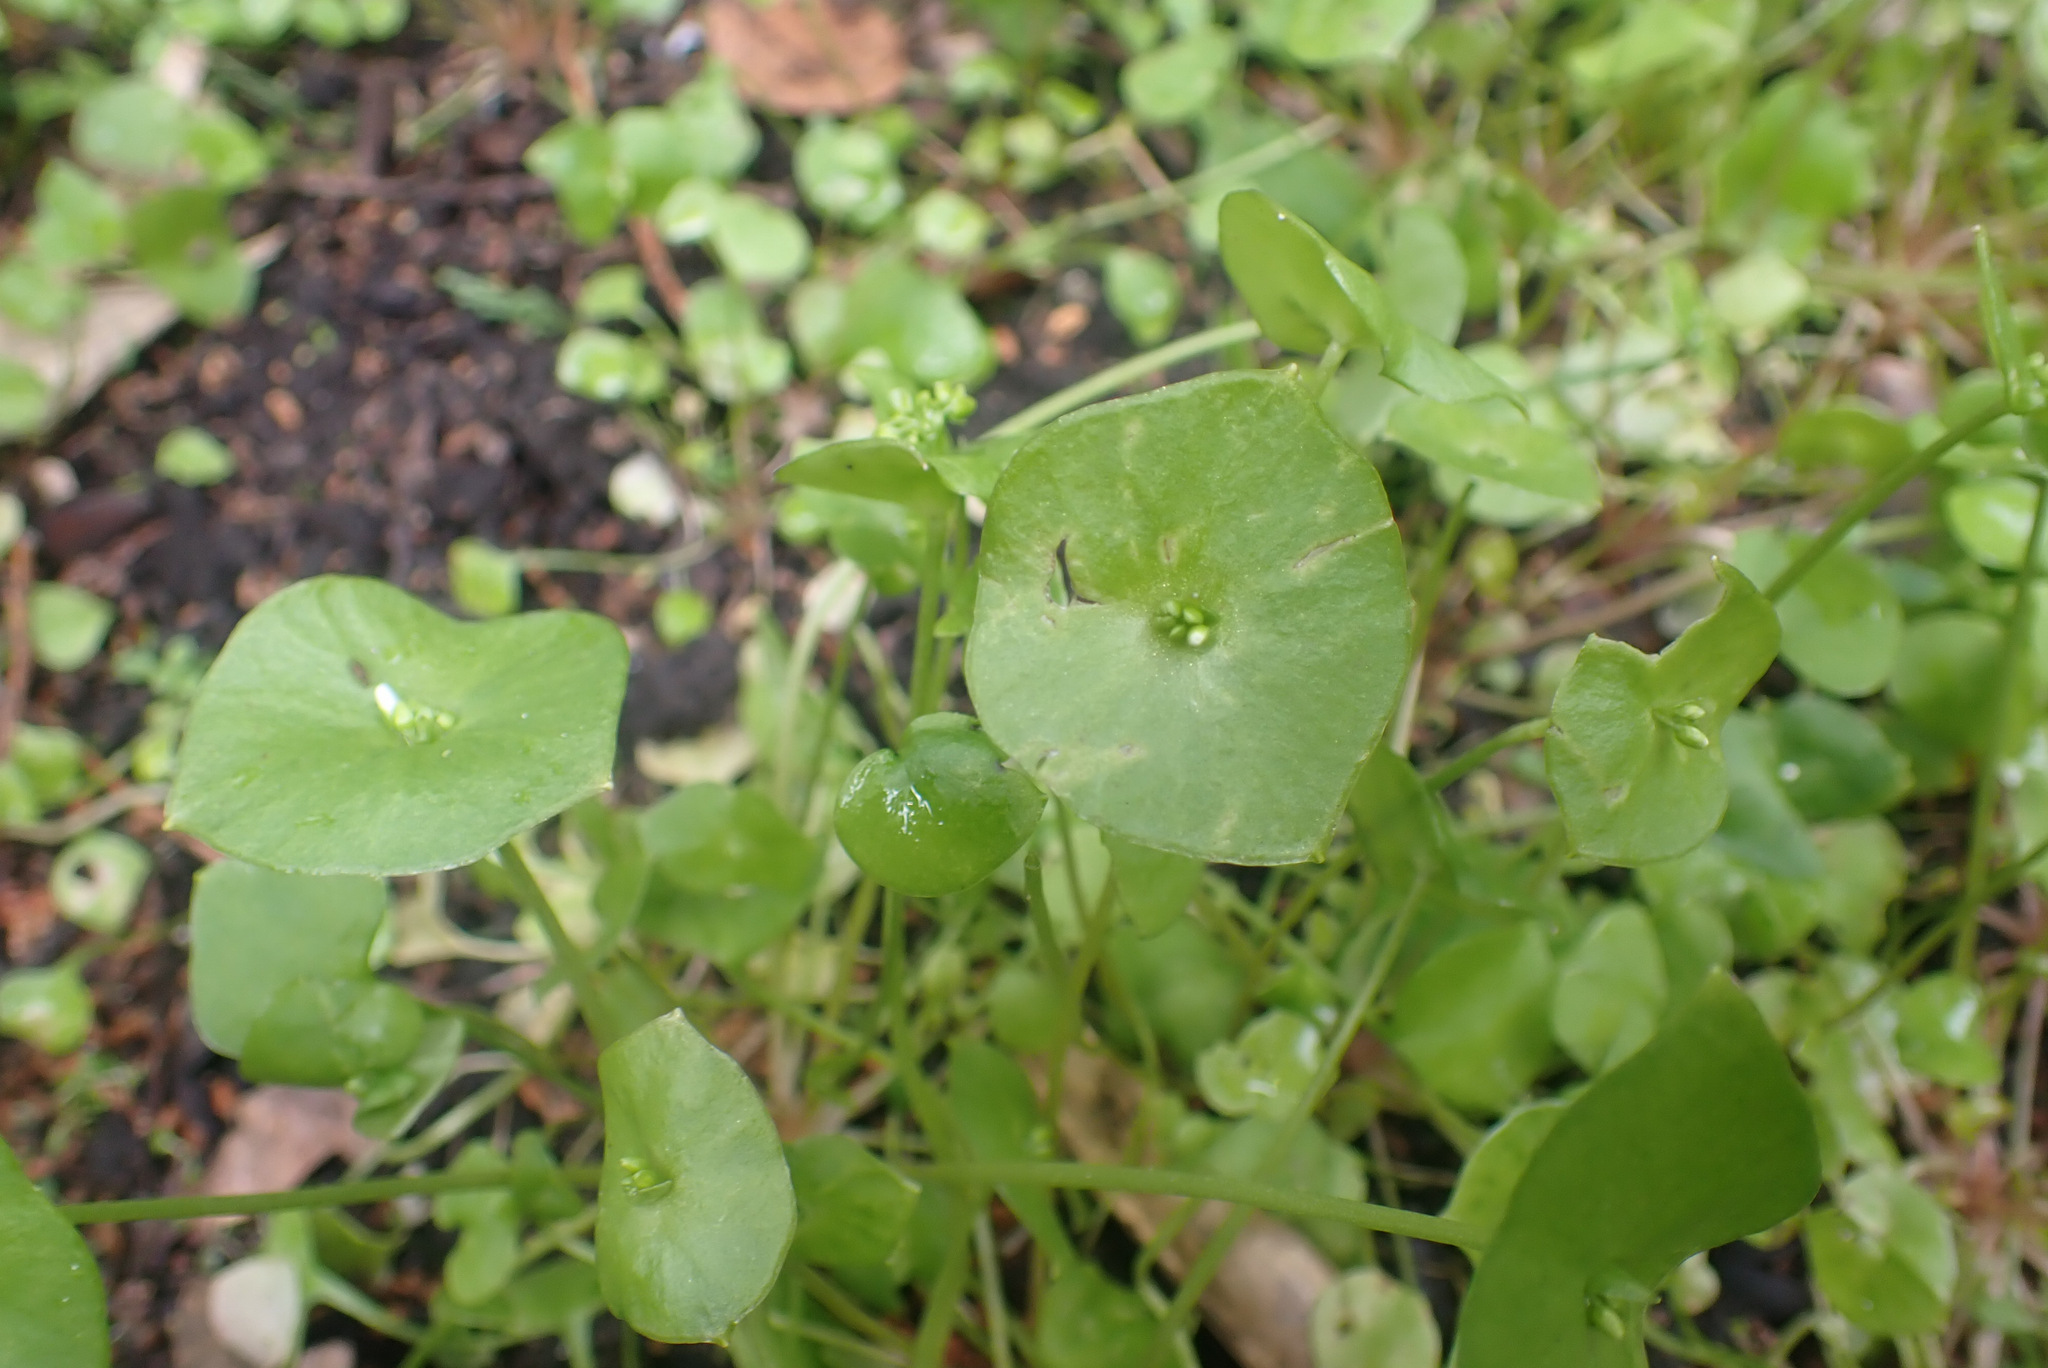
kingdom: Plantae
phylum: Tracheophyta
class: Magnoliopsida
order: Caryophyllales
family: Montiaceae
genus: Claytonia
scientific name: Claytonia perfoliata
